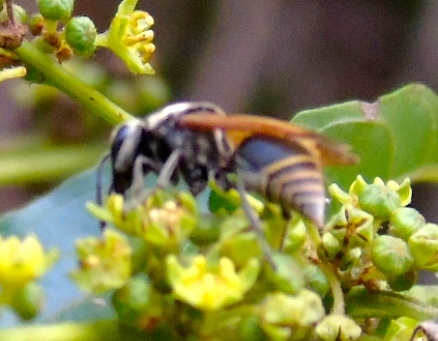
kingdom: Animalia
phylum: Arthropoda
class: Insecta
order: Hymenoptera
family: Vespidae
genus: Brachygastra
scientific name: Brachygastra mellifica
